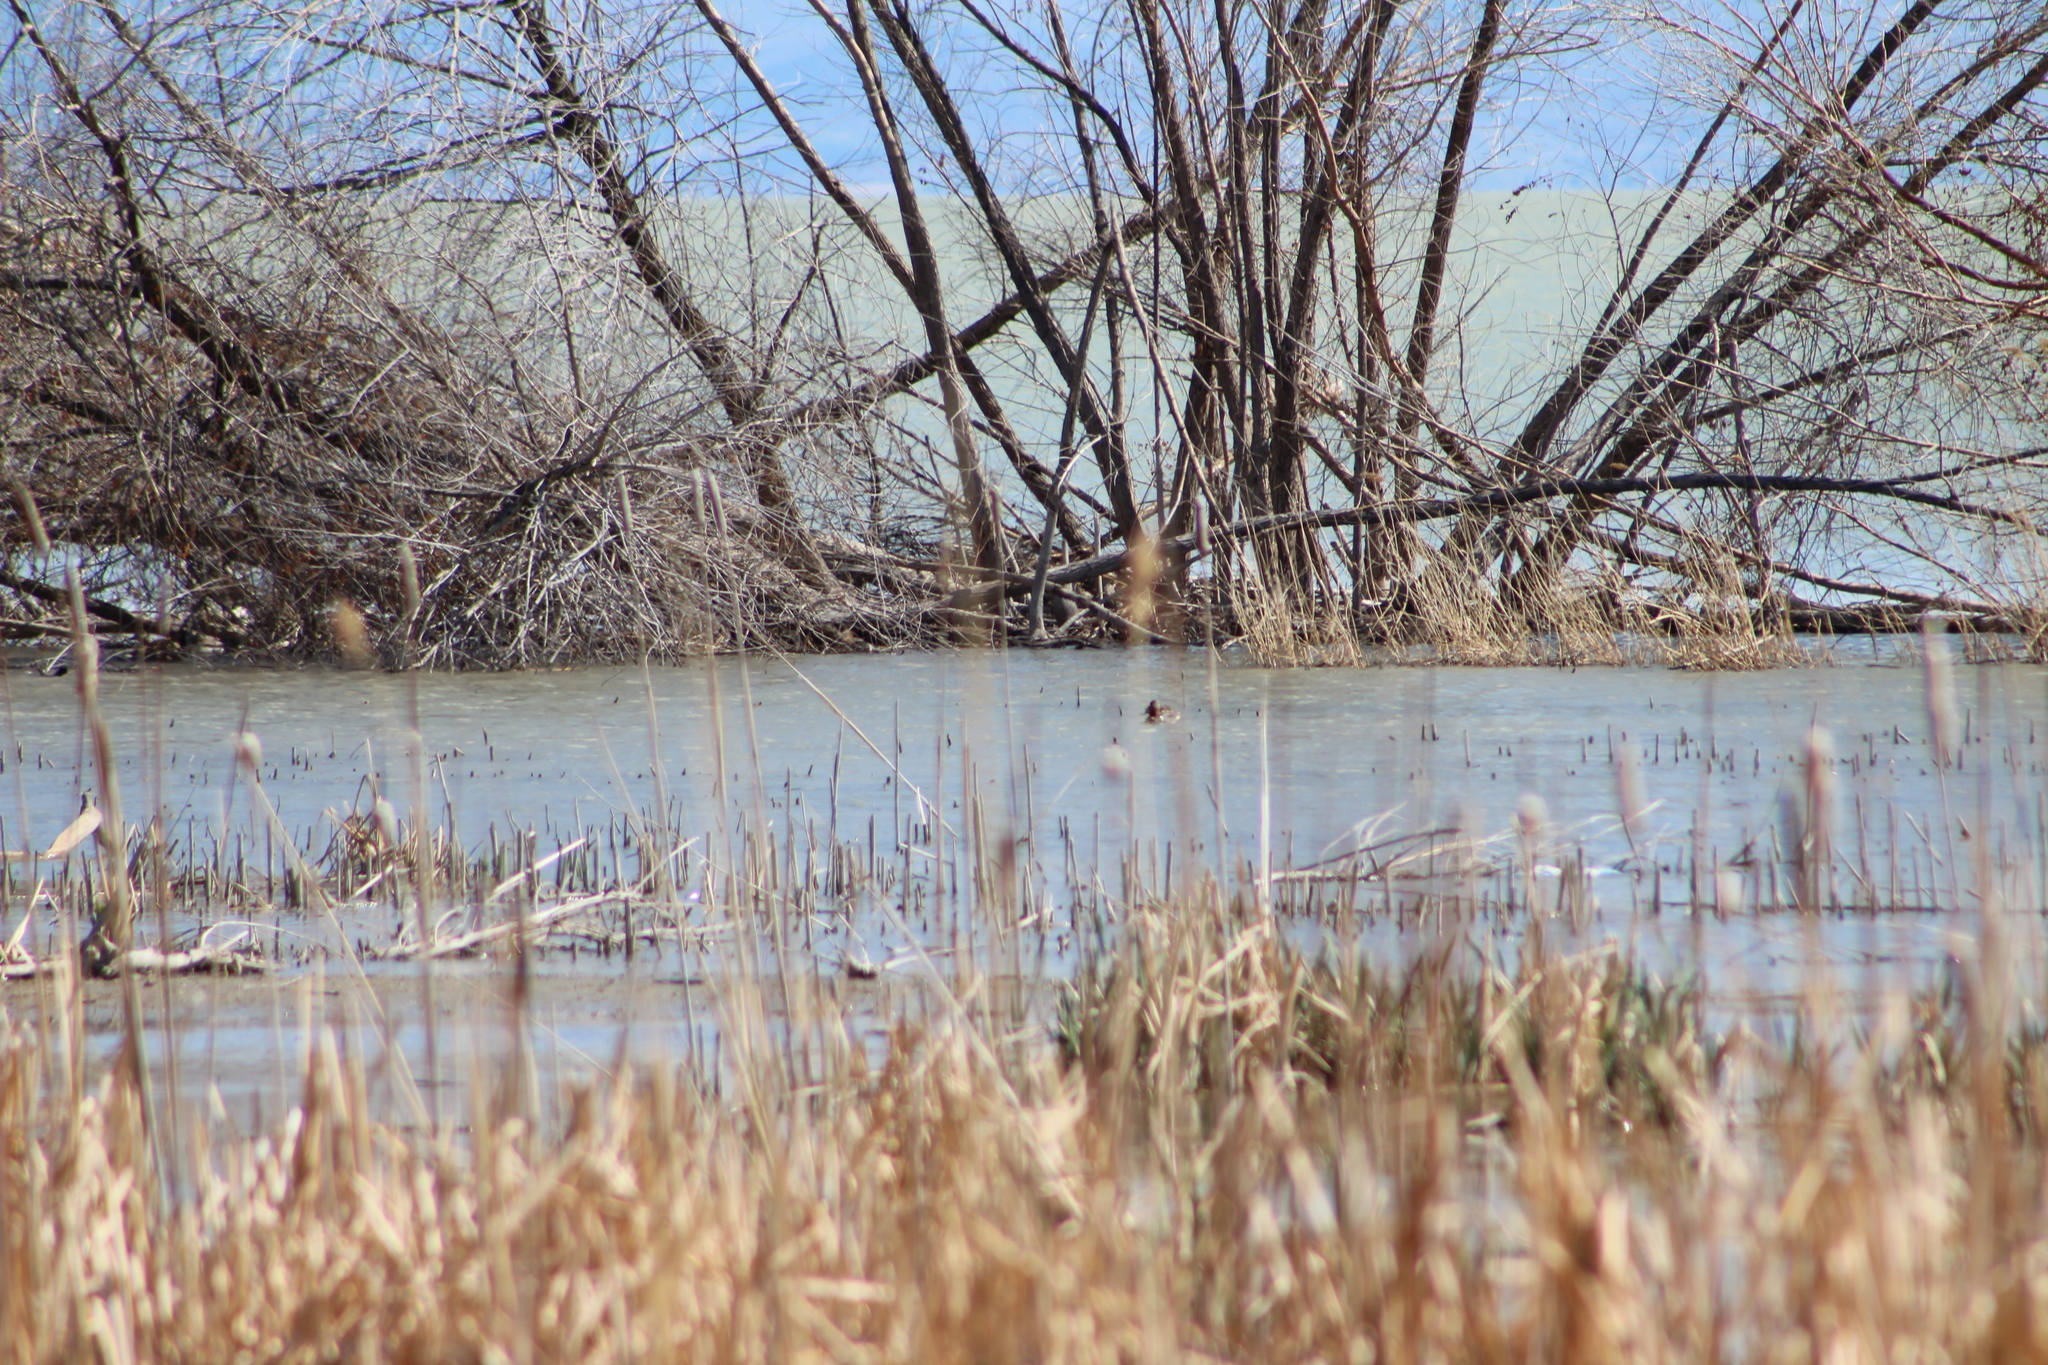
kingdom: Animalia
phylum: Chordata
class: Aves
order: Anseriformes
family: Anatidae
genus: Anas
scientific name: Anas crecca
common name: Eurasian teal
